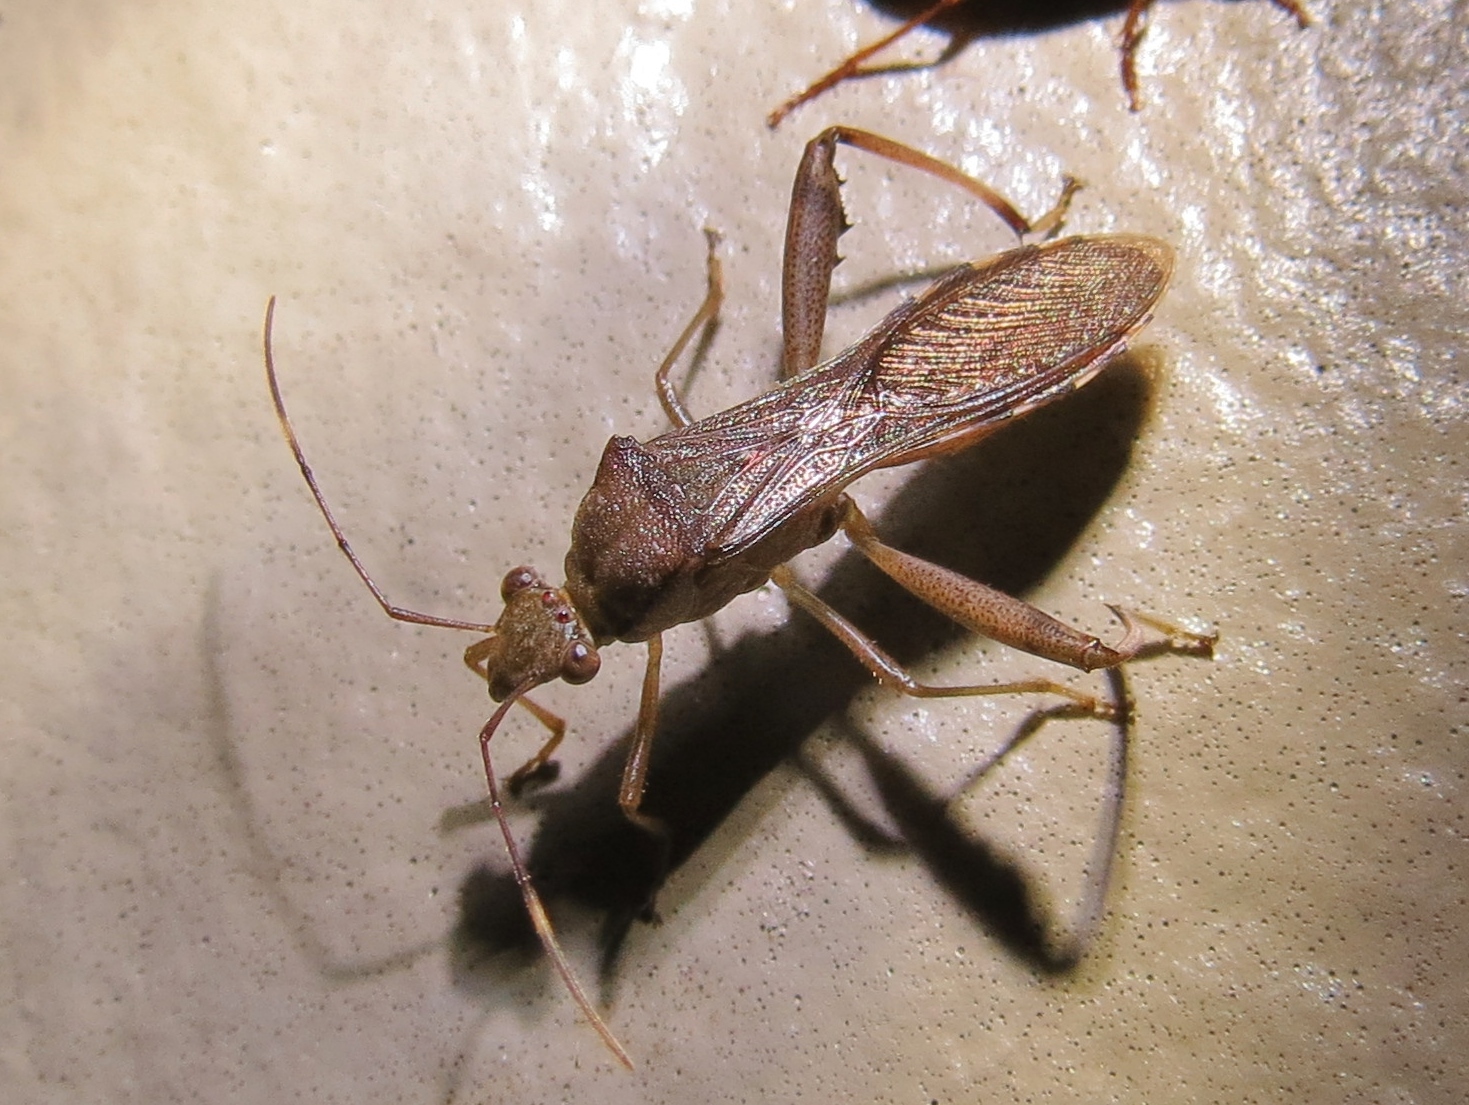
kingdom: Animalia
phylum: Arthropoda
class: Insecta
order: Hemiptera
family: Alydidae
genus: Hyalymenus
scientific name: Hyalymenus tarsatus
